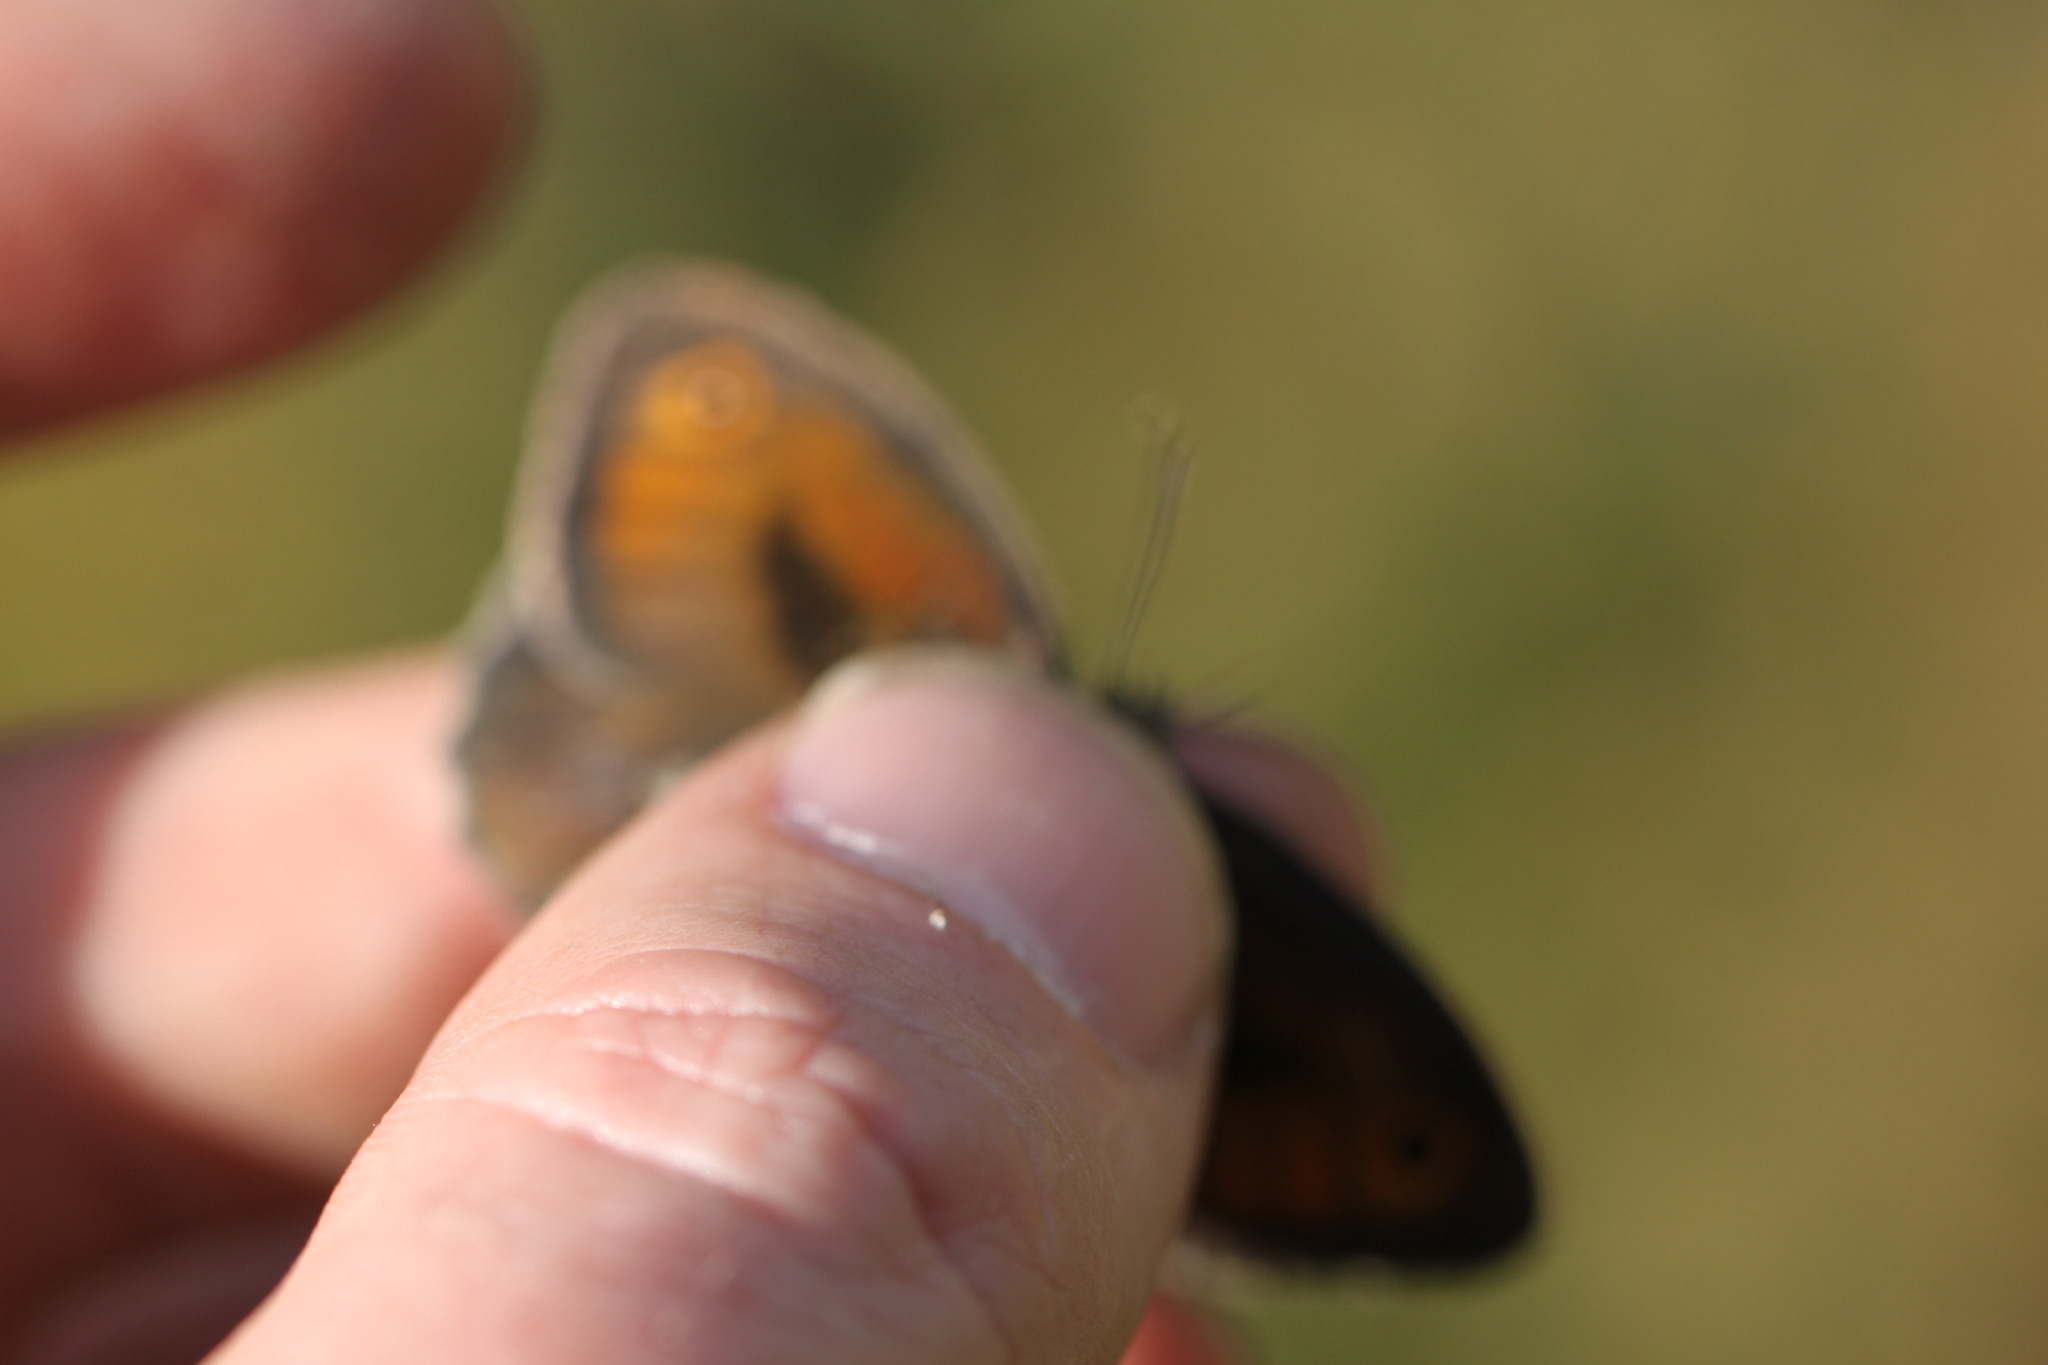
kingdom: Animalia
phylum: Arthropoda
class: Insecta
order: Lepidoptera
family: Nymphalidae
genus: Maniola
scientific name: Maniola telmessia
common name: Persian meadow brown
